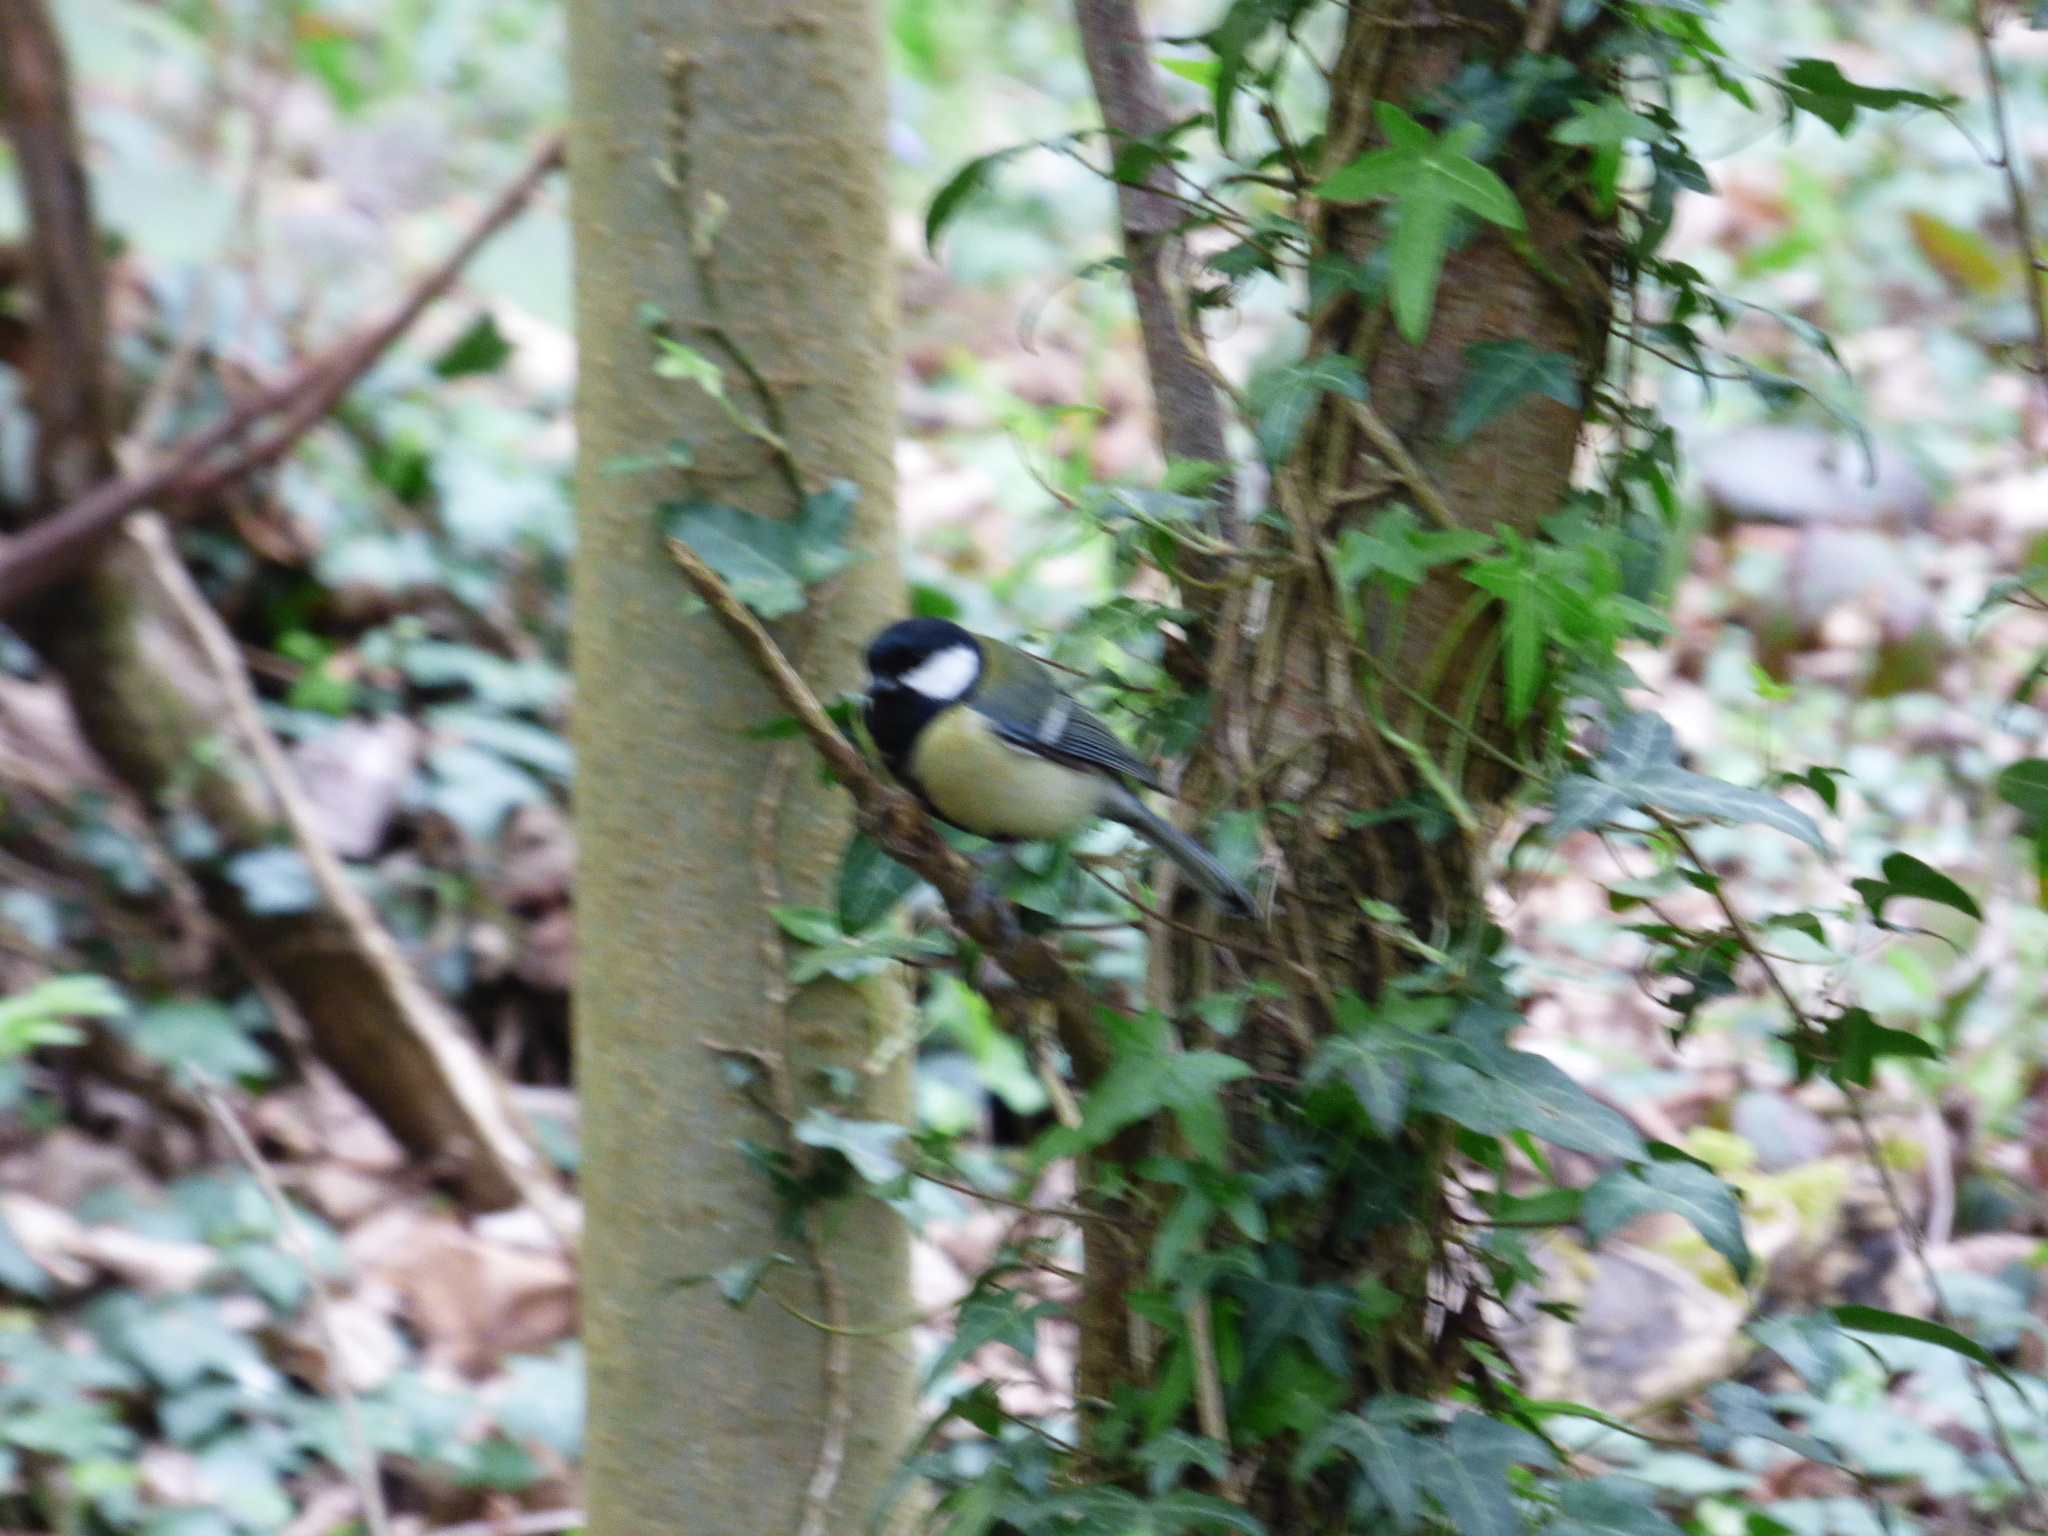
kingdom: Animalia
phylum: Chordata
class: Aves
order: Passeriformes
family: Paridae
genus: Parus
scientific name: Parus major
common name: Great tit
